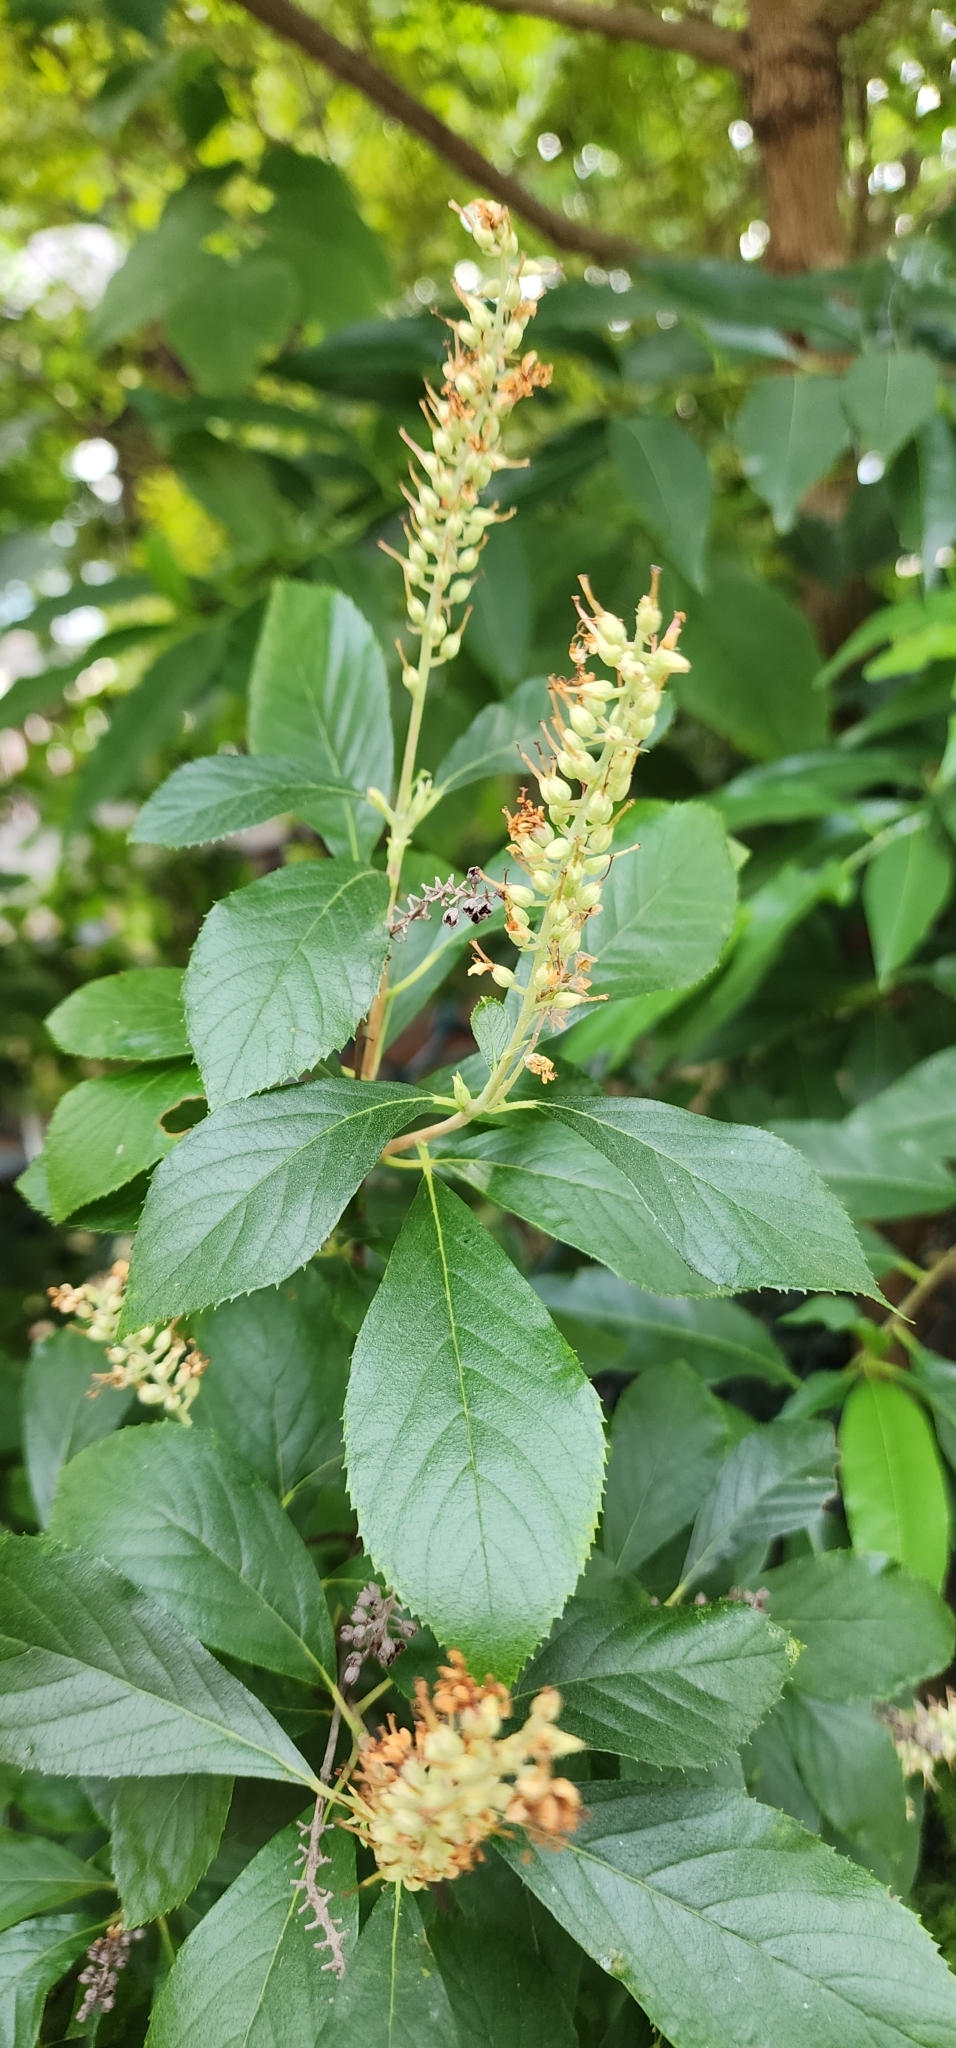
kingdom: Plantae
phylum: Tracheophyta
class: Magnoliopsida
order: Ericales
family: Clethraceae
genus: Clethra
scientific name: Clethra alnifolia
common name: Sweet pepperbush
